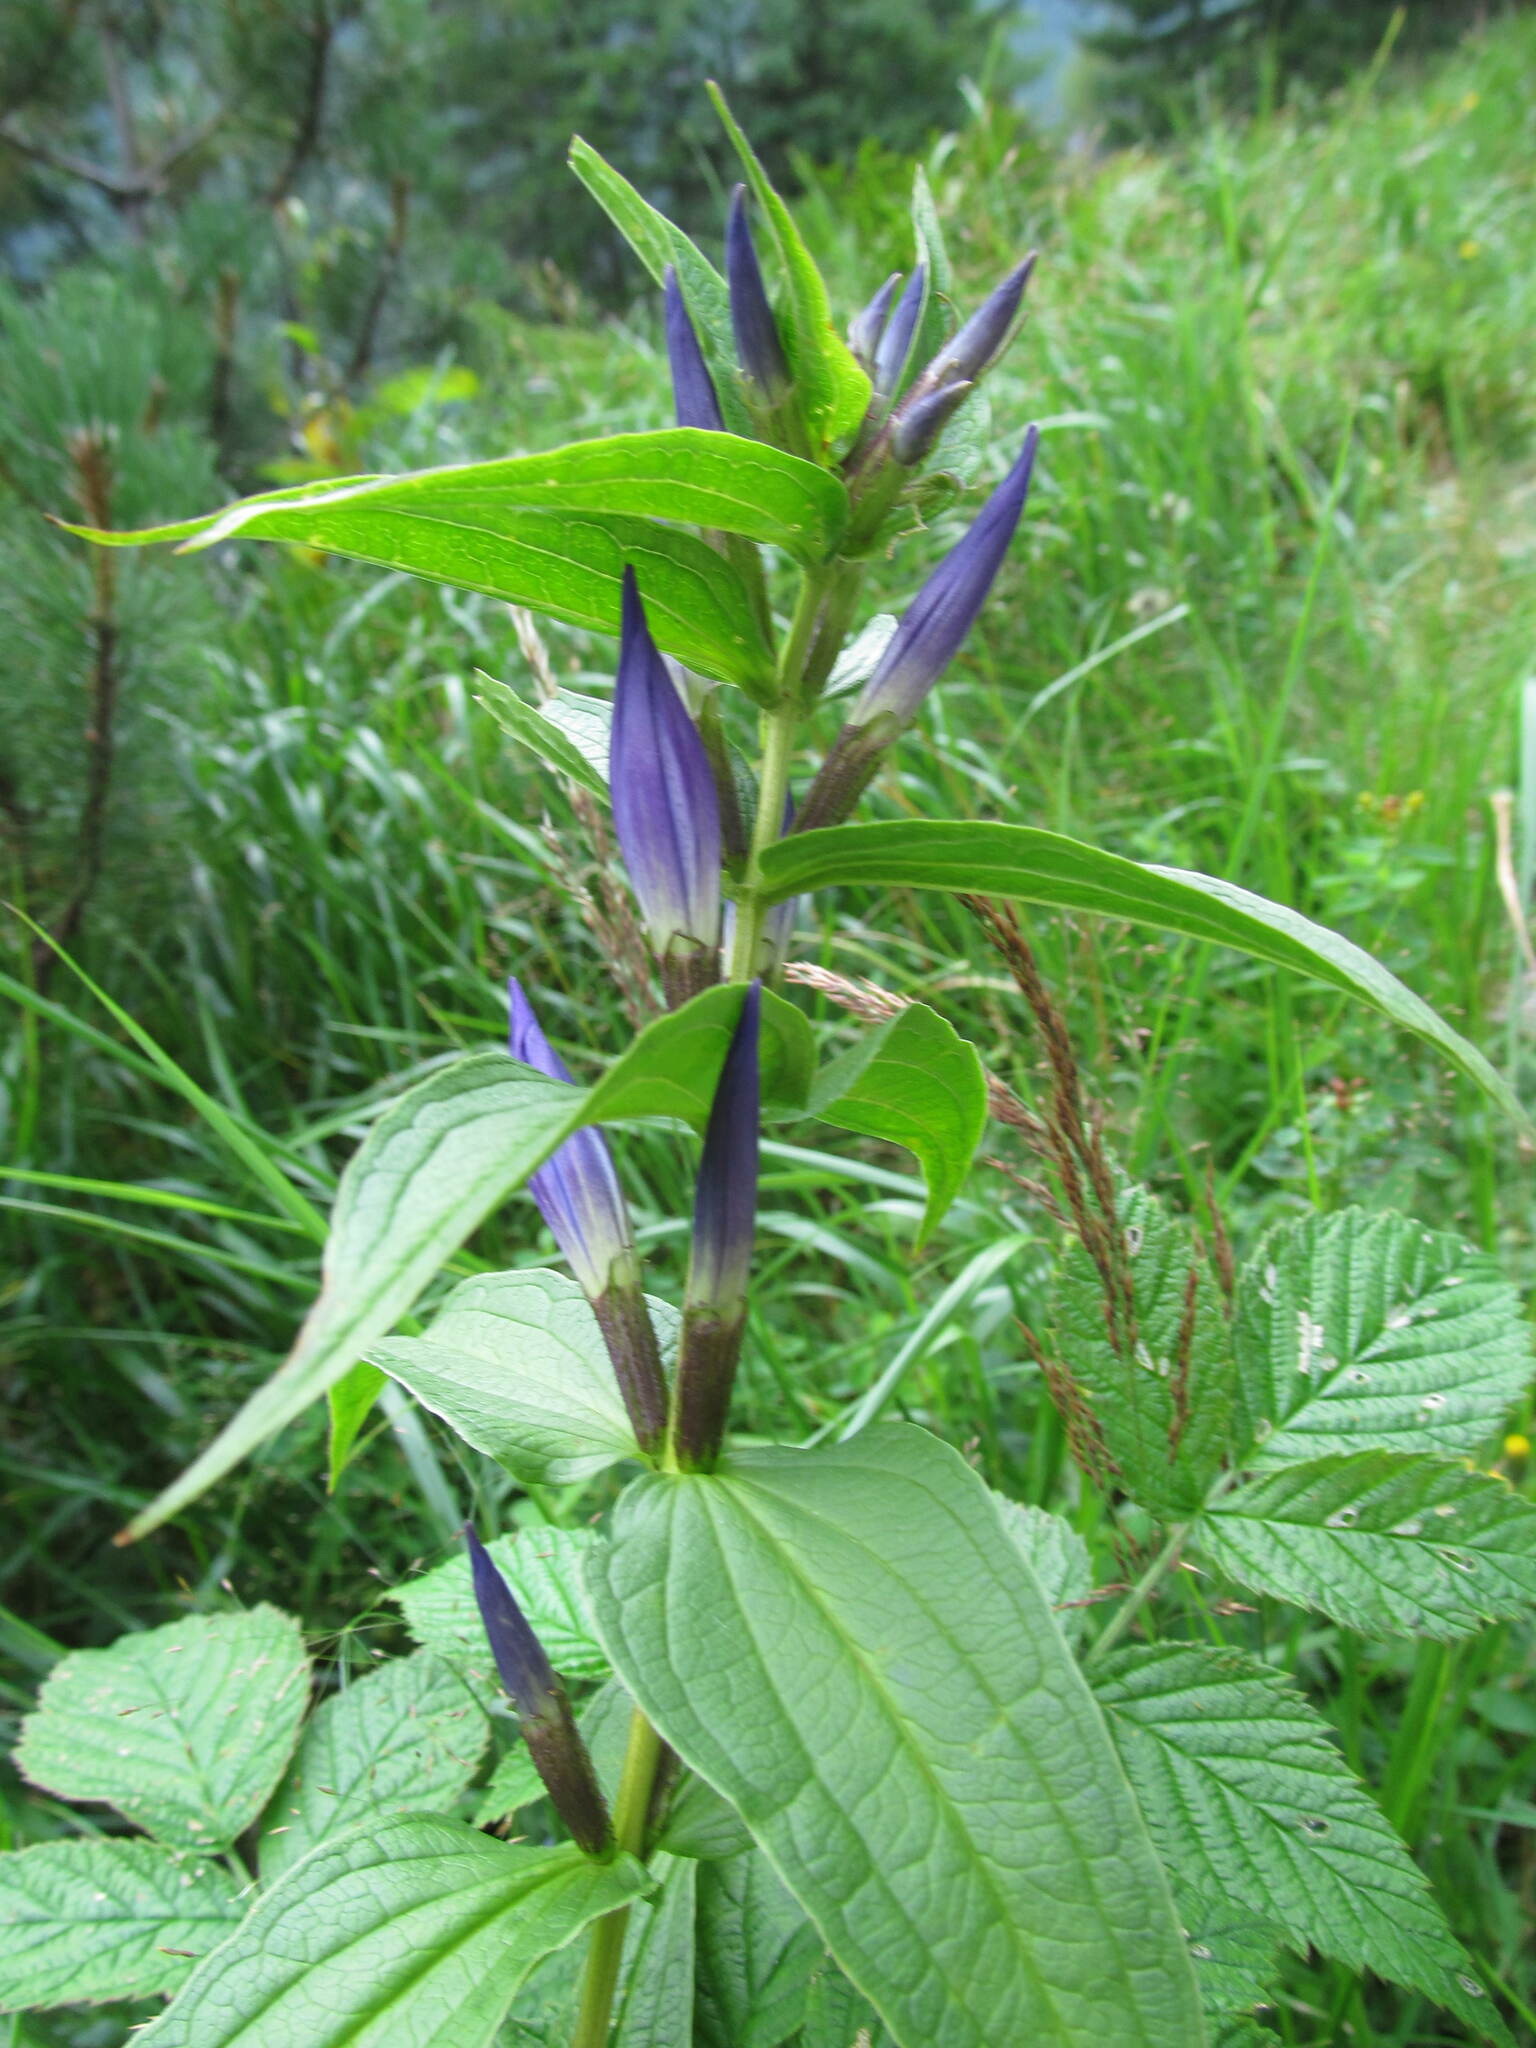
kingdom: Plantae
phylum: Tracheophyta
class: Magnoliopsida
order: Gentianales
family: Gentianaceae
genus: Gentiana
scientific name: Gentiana asclepiadea
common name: Willow gentian
